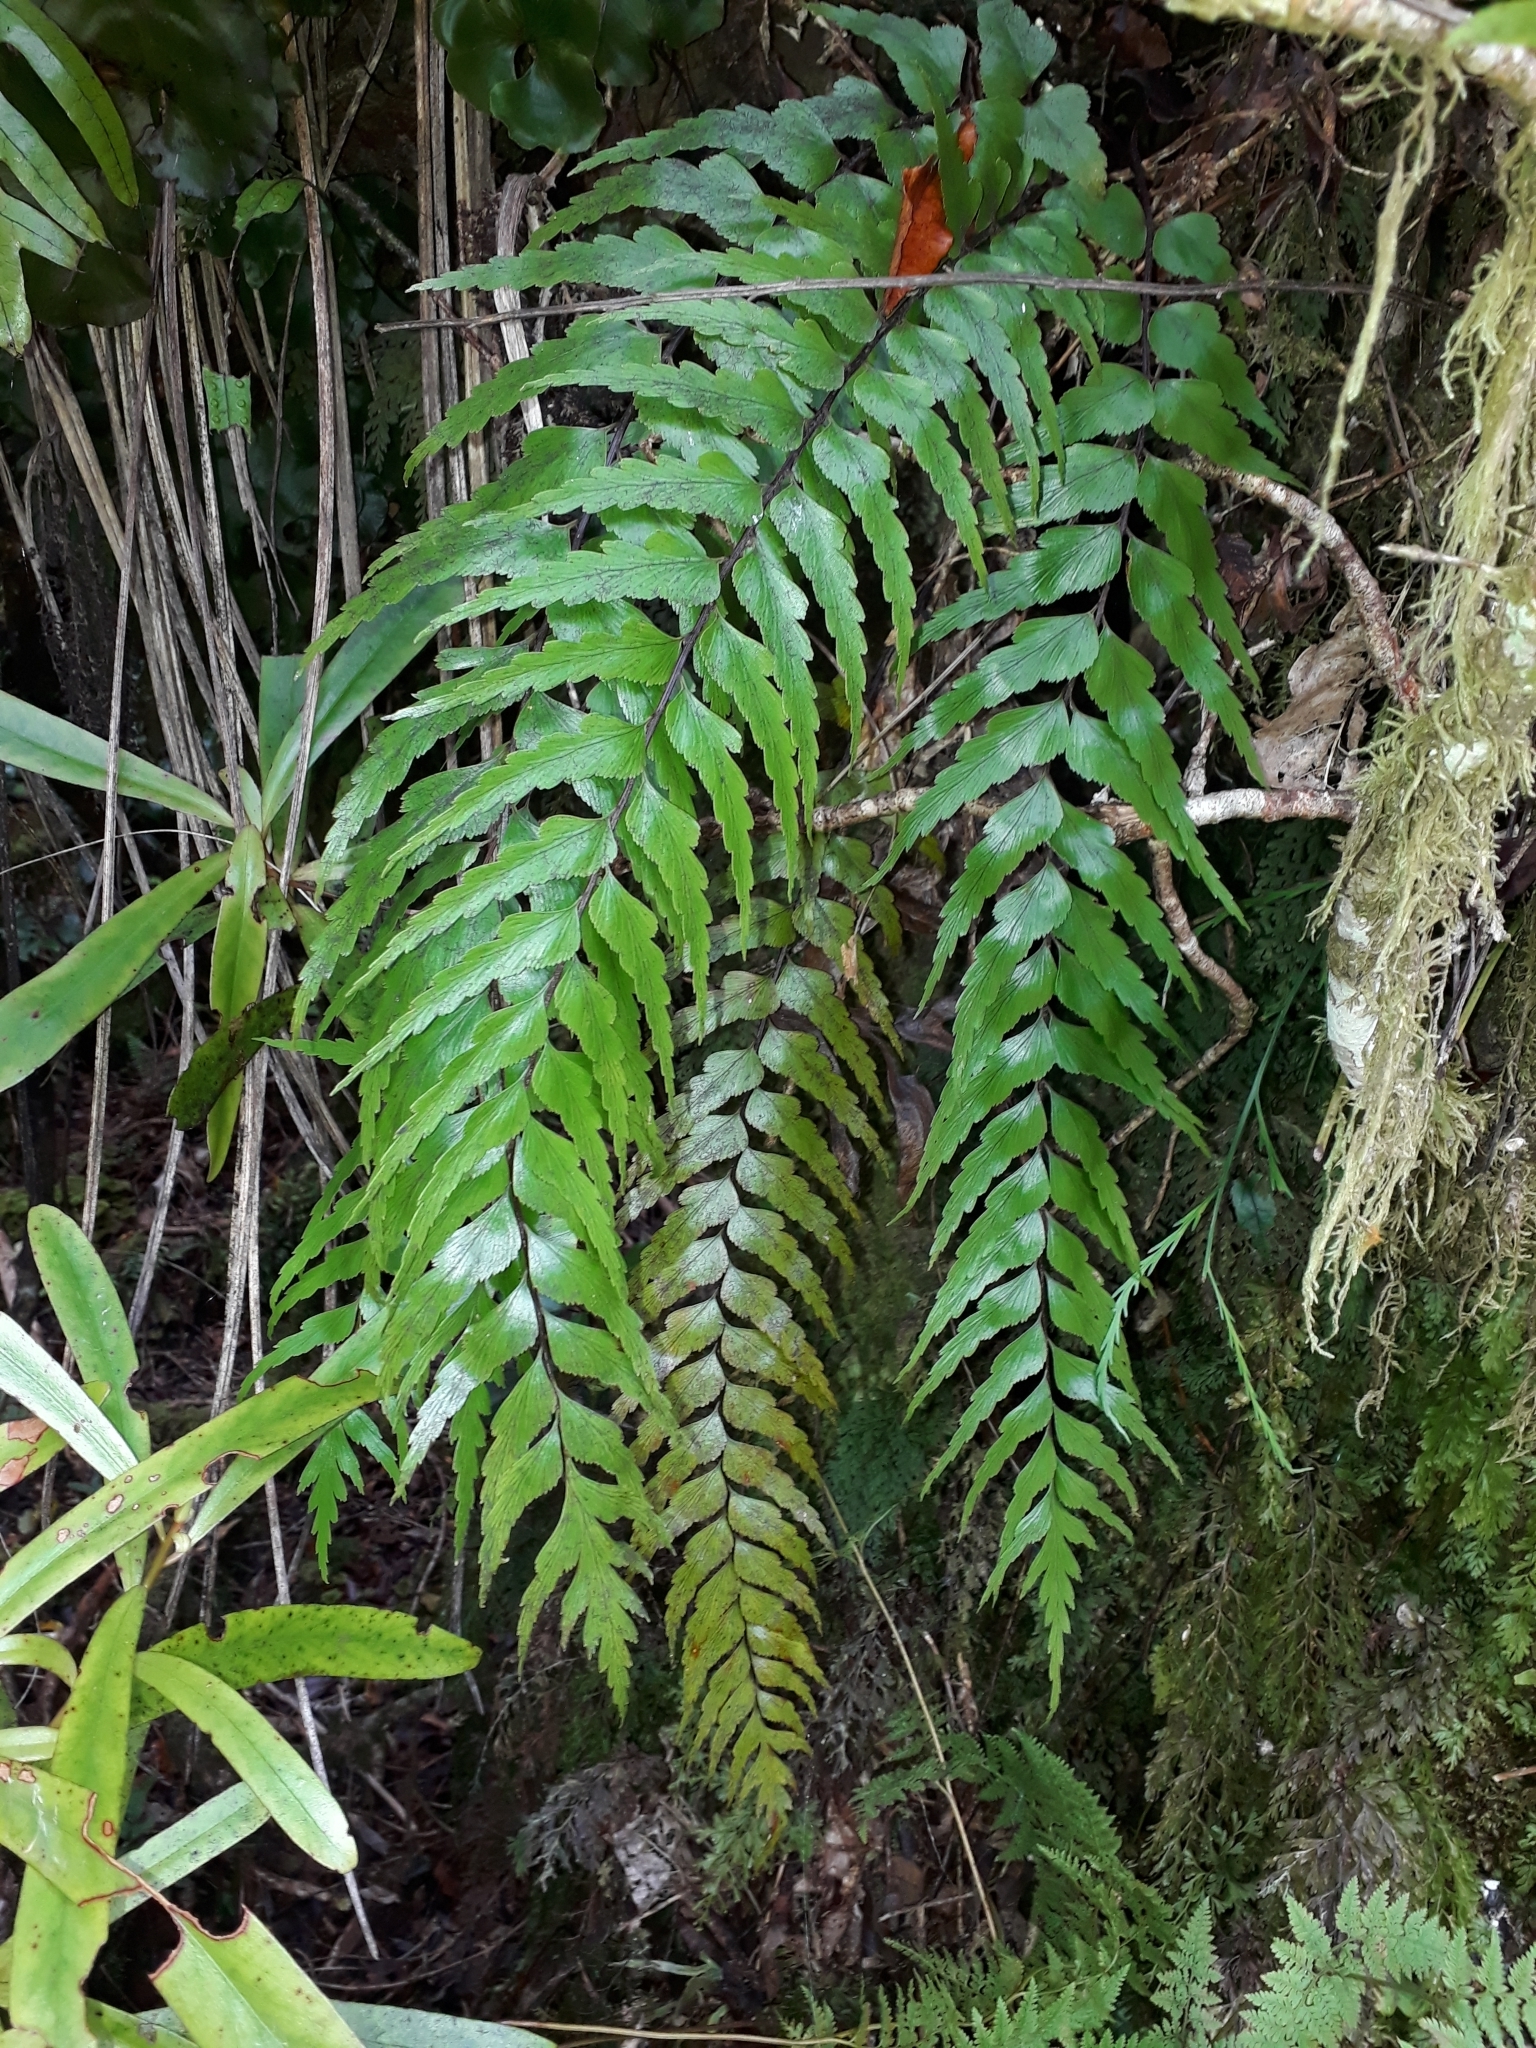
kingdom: Plantae
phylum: Tracheophyta
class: Polypodiopsida
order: Polypodiales
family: Aspleniaceae
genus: Asplenium
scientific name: Asplenium polyodon
